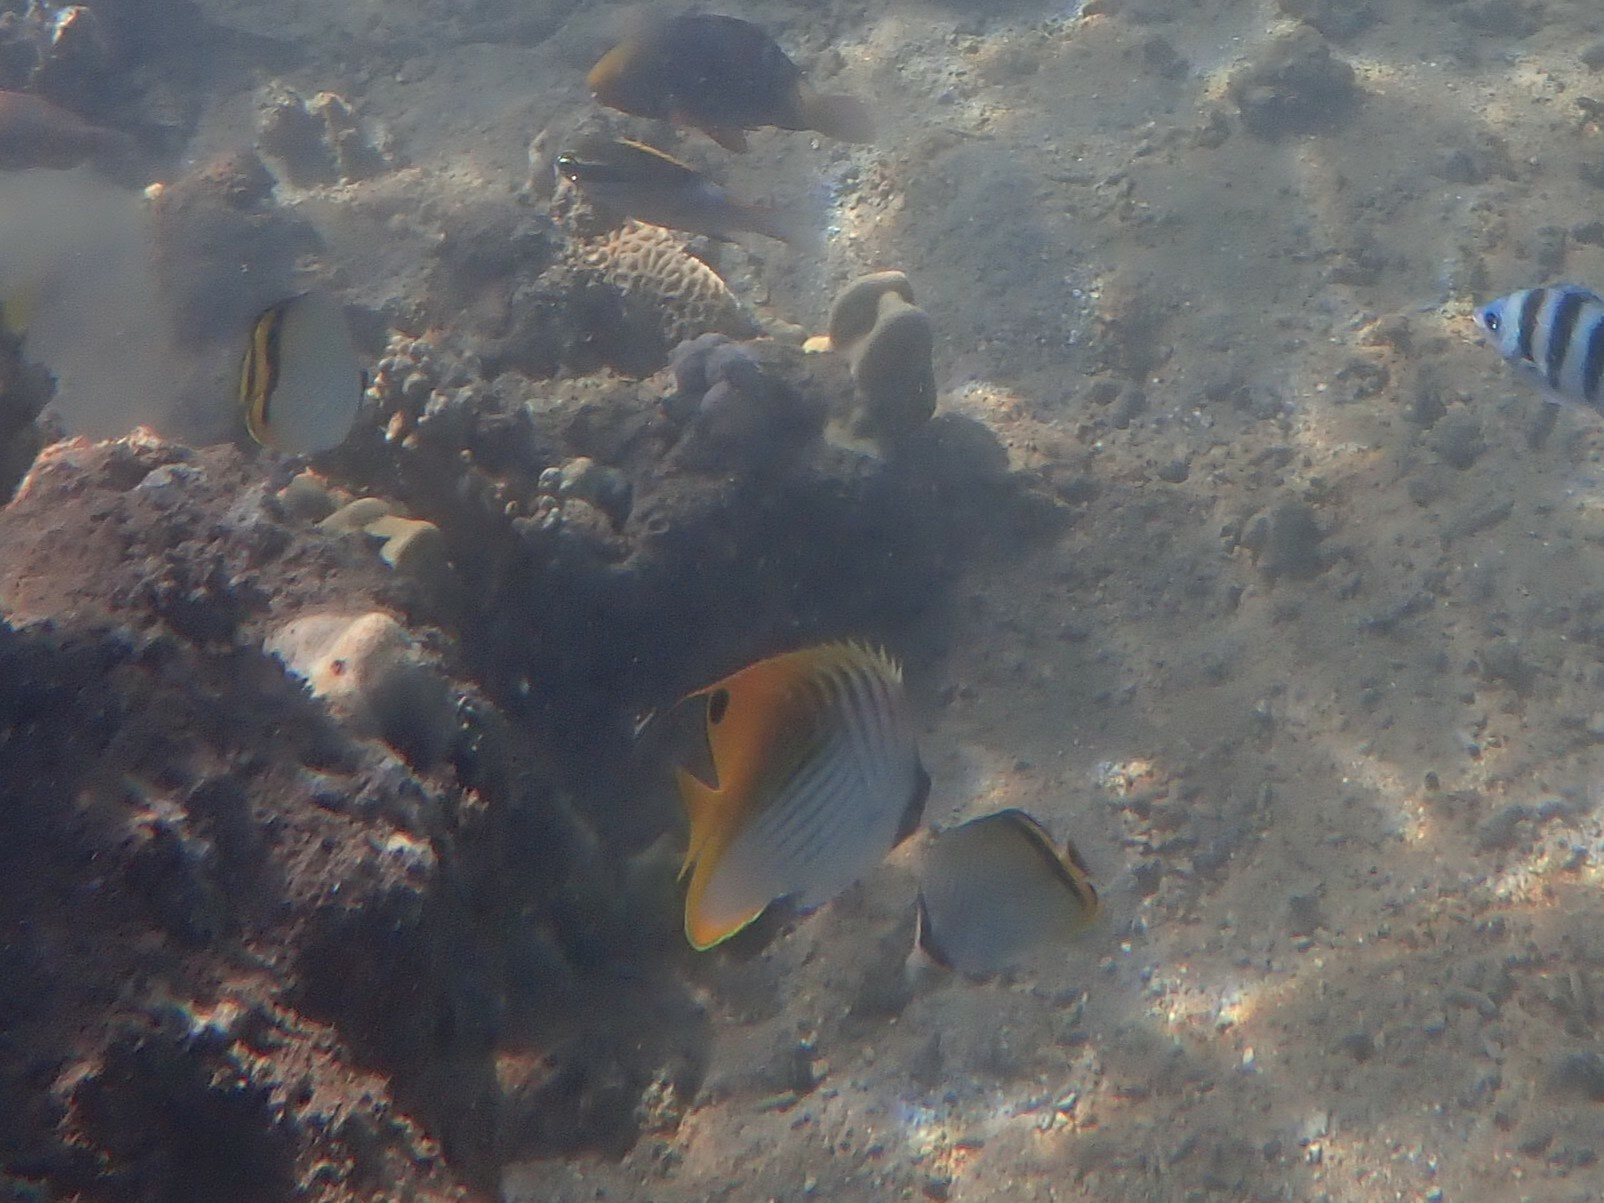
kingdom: Animalia
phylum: Chordata
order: Perciformes
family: Chaetodontidae
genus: Chaetodon
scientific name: Chaetodon auriga
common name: Threadfin butterflyfish
